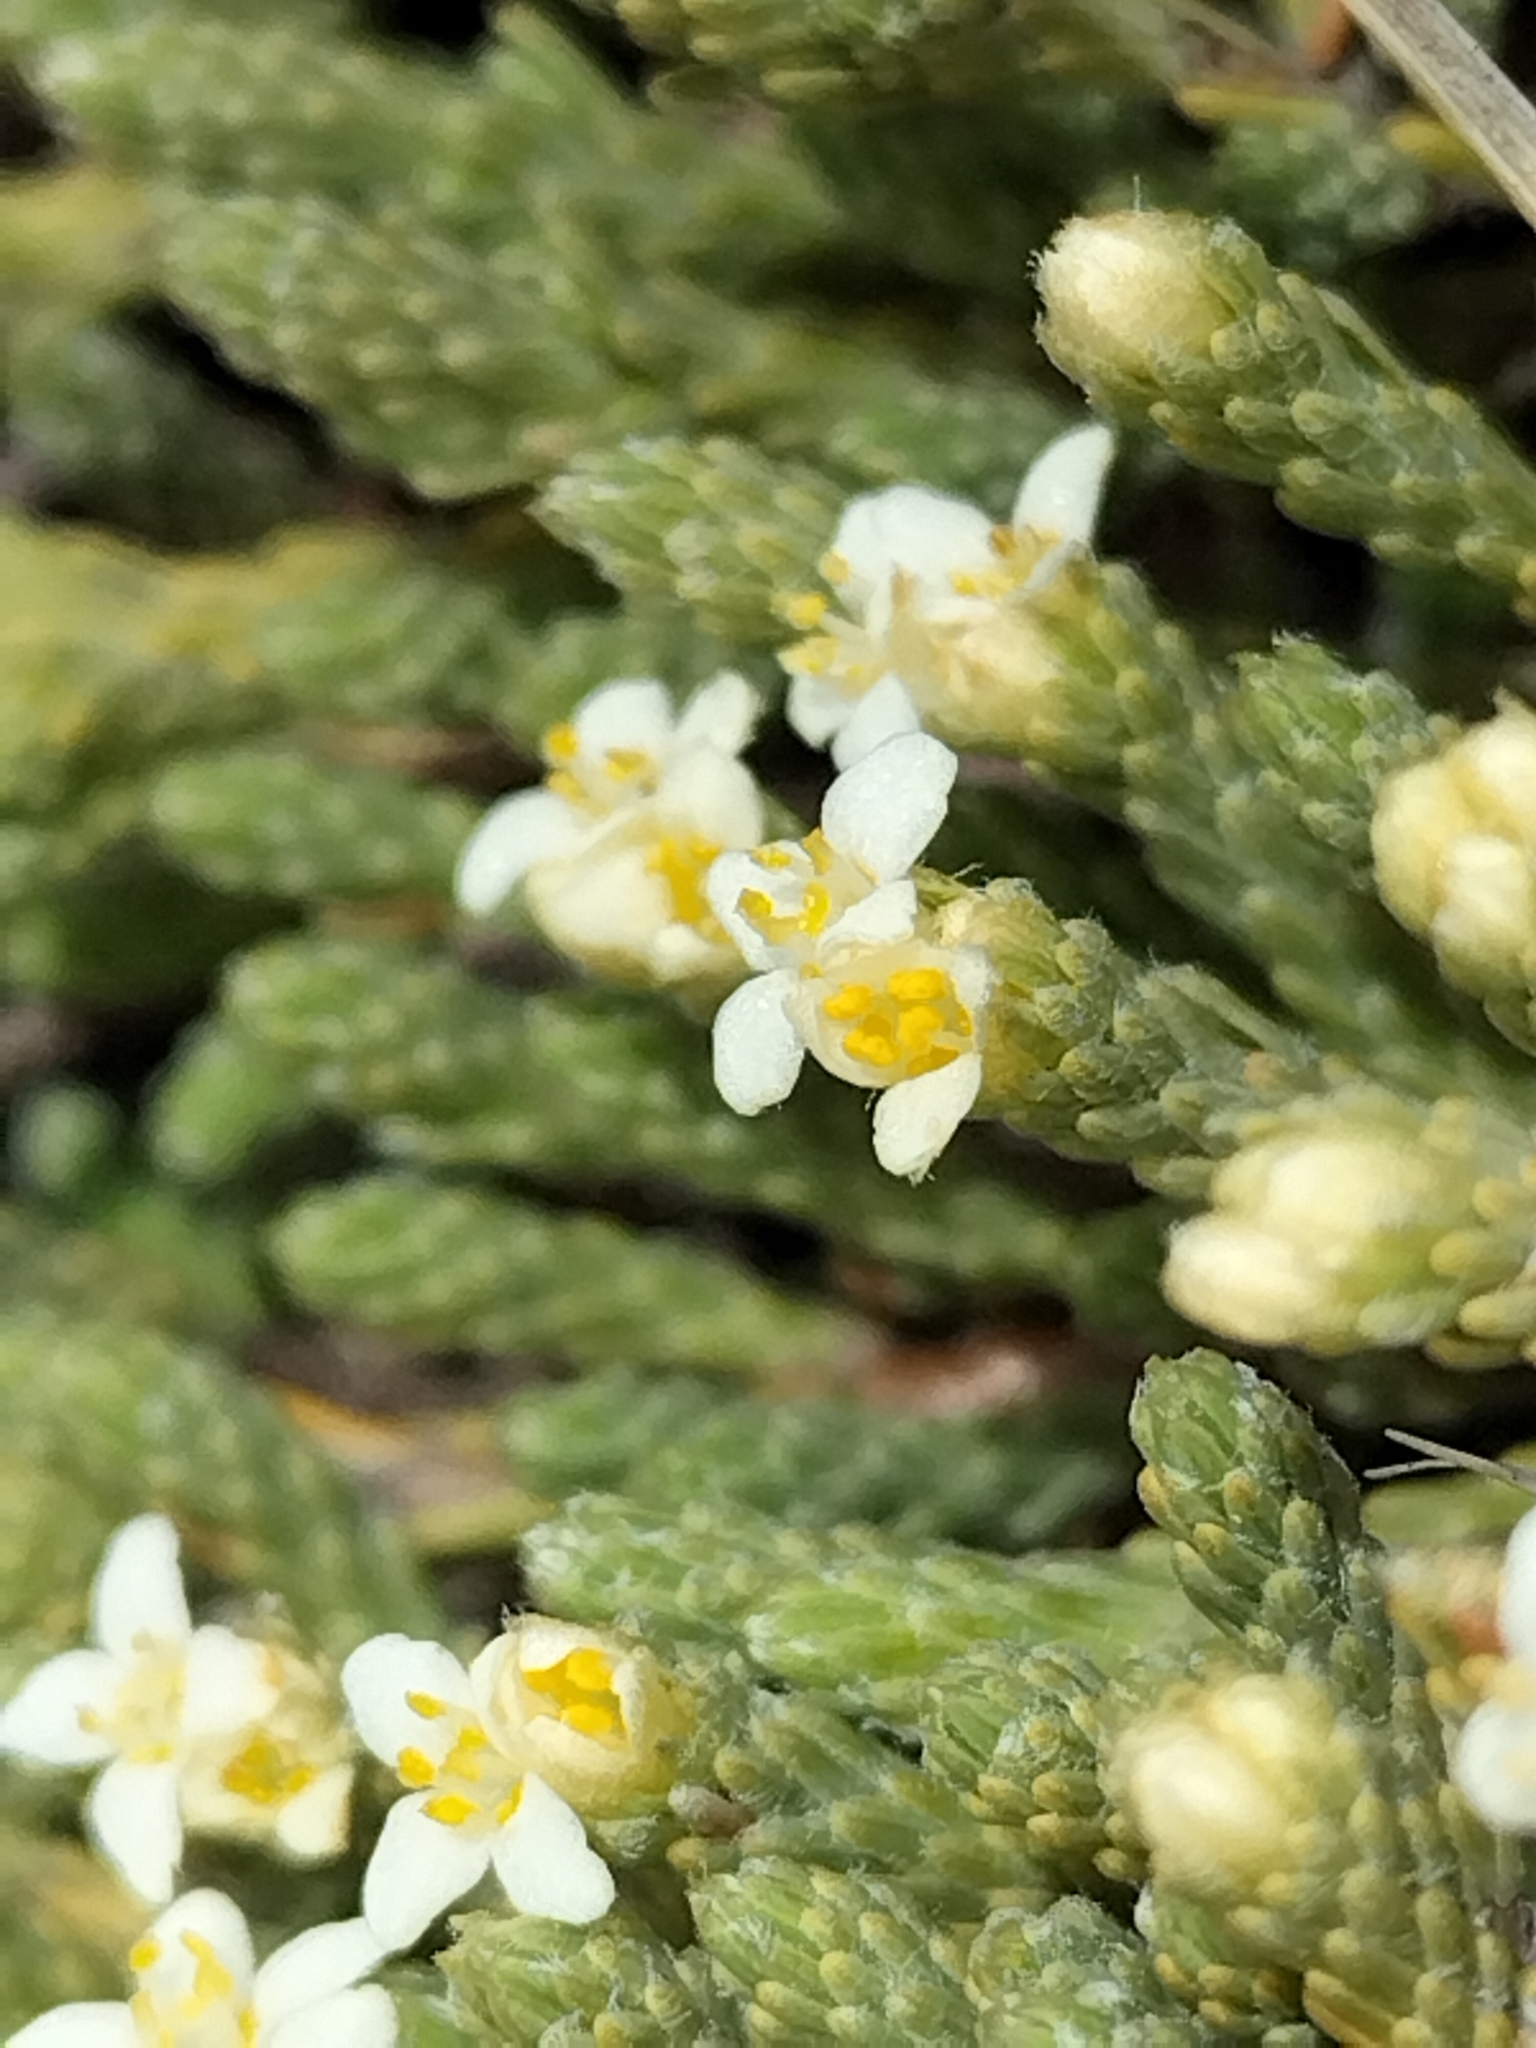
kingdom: Plantae
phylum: Tracheophyta
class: Magnoliopsida
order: Malvales
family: Thymelaeaceae
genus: Kelleria
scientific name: Kelleria dieffenbachii
